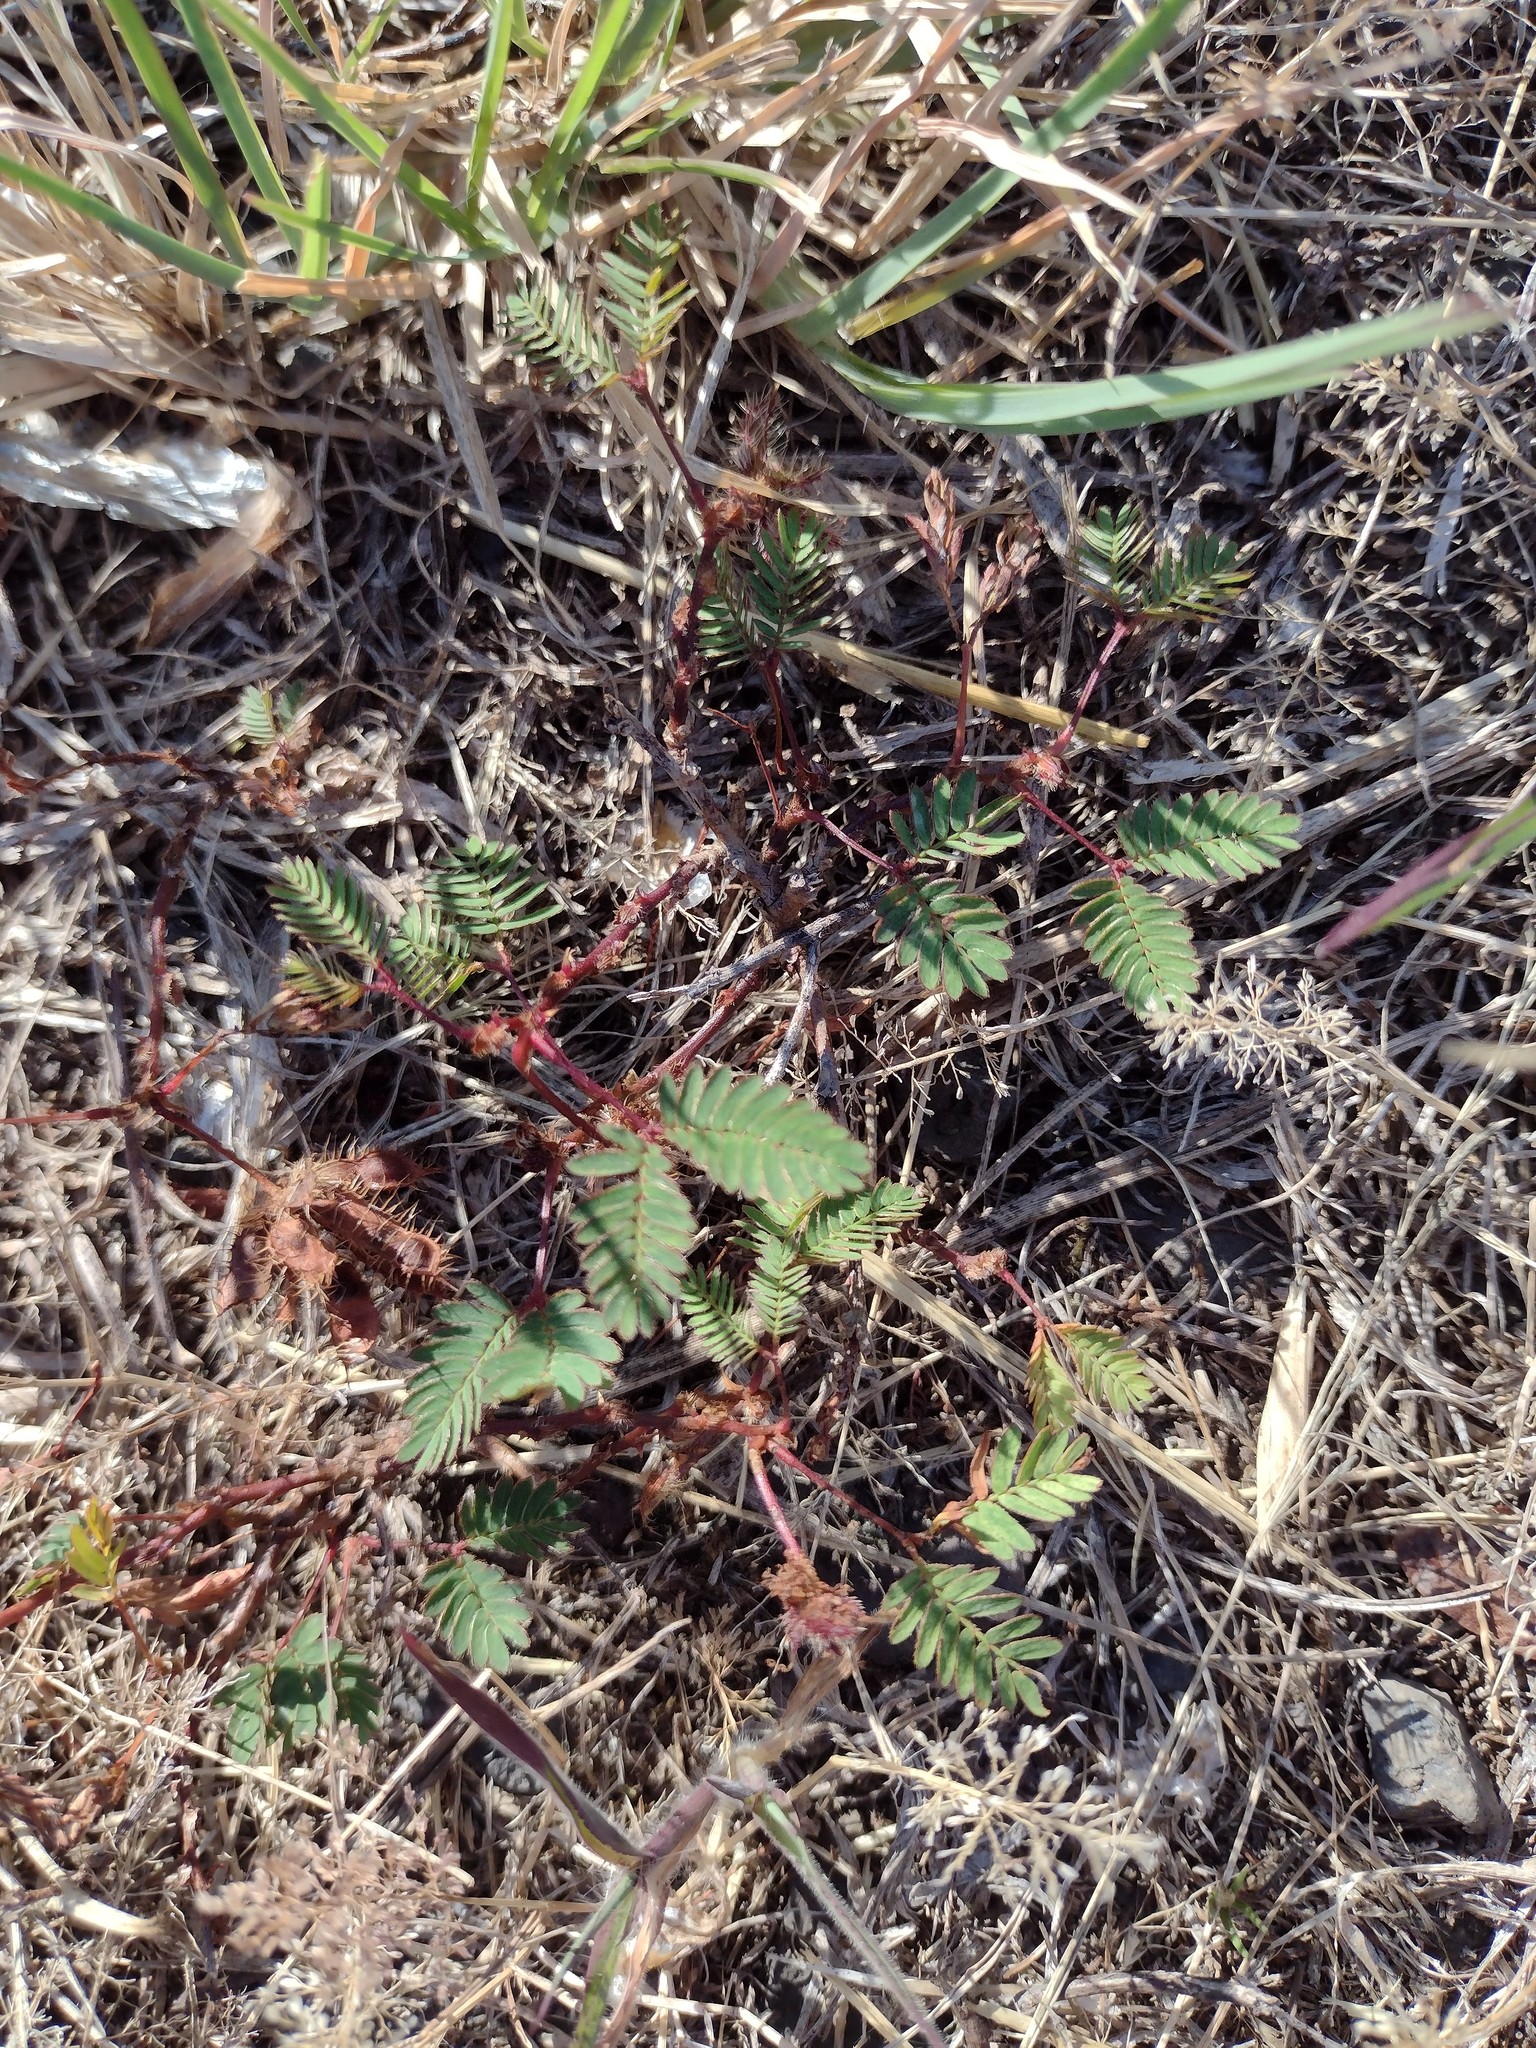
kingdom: Plantae
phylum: Tracheophyta
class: Magnoliopsida
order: Fabales
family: Fabaceae
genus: Mimosa
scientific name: Mimosa pudica
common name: Sensitive plant
